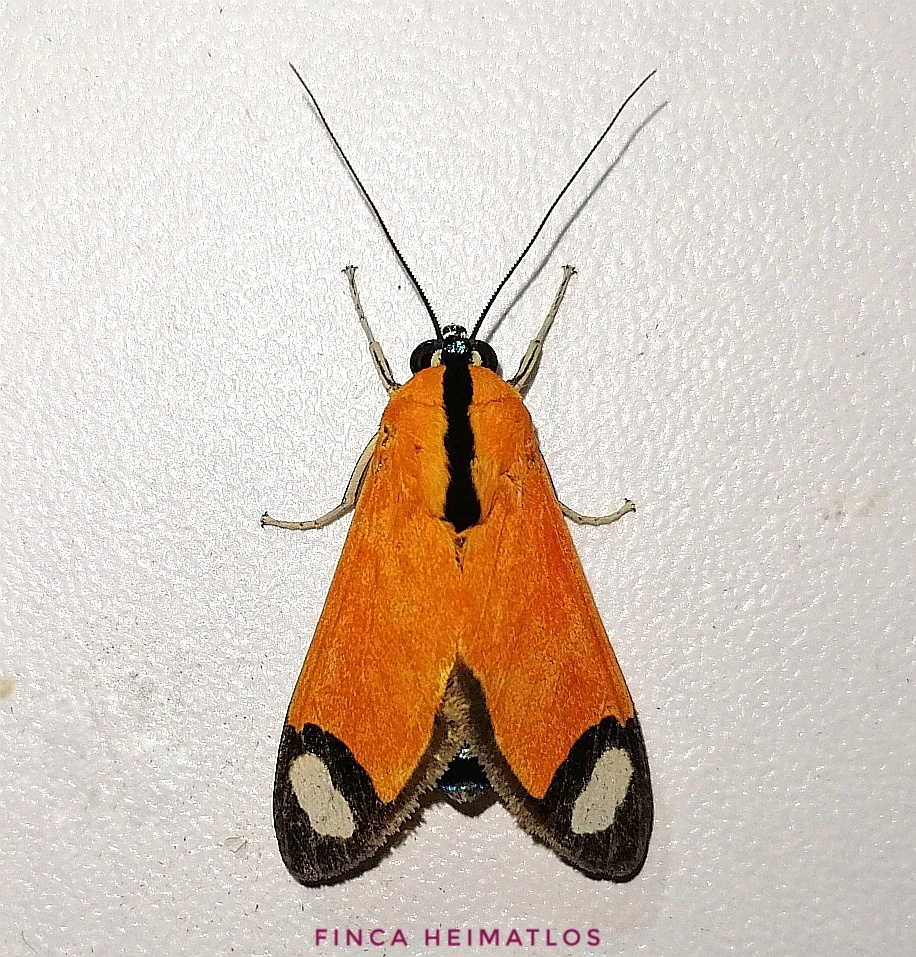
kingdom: Animalia
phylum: Arthropoda
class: Insecta
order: Lepidoptera
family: Erebidae
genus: Ormetica
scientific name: Ormetica contraria
